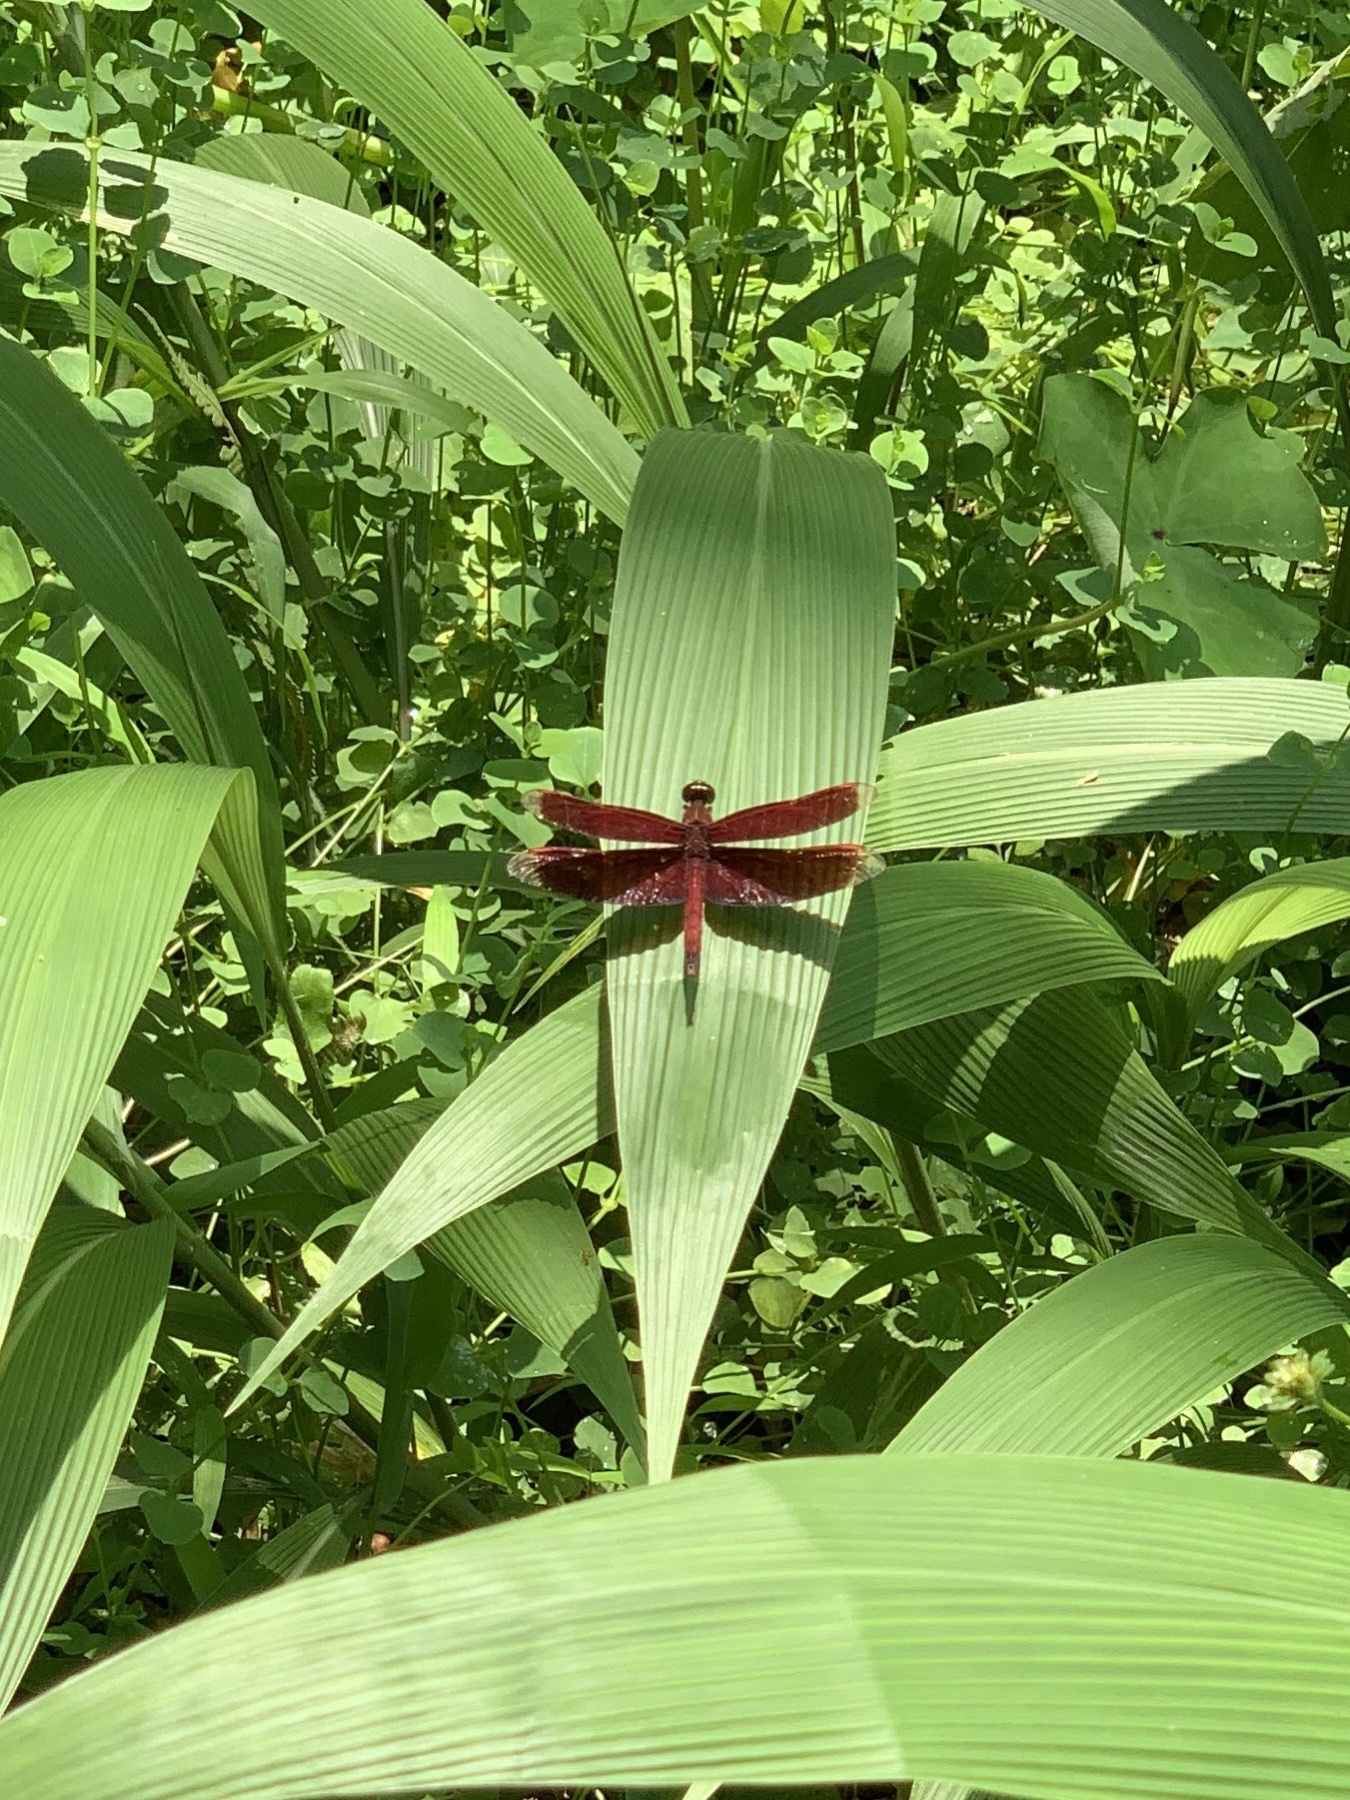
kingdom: Animalia
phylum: Arthropoda
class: Insecta
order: Odonata
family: Libellulidae
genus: Neurothemis
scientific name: Neurothemis taiwanensis
